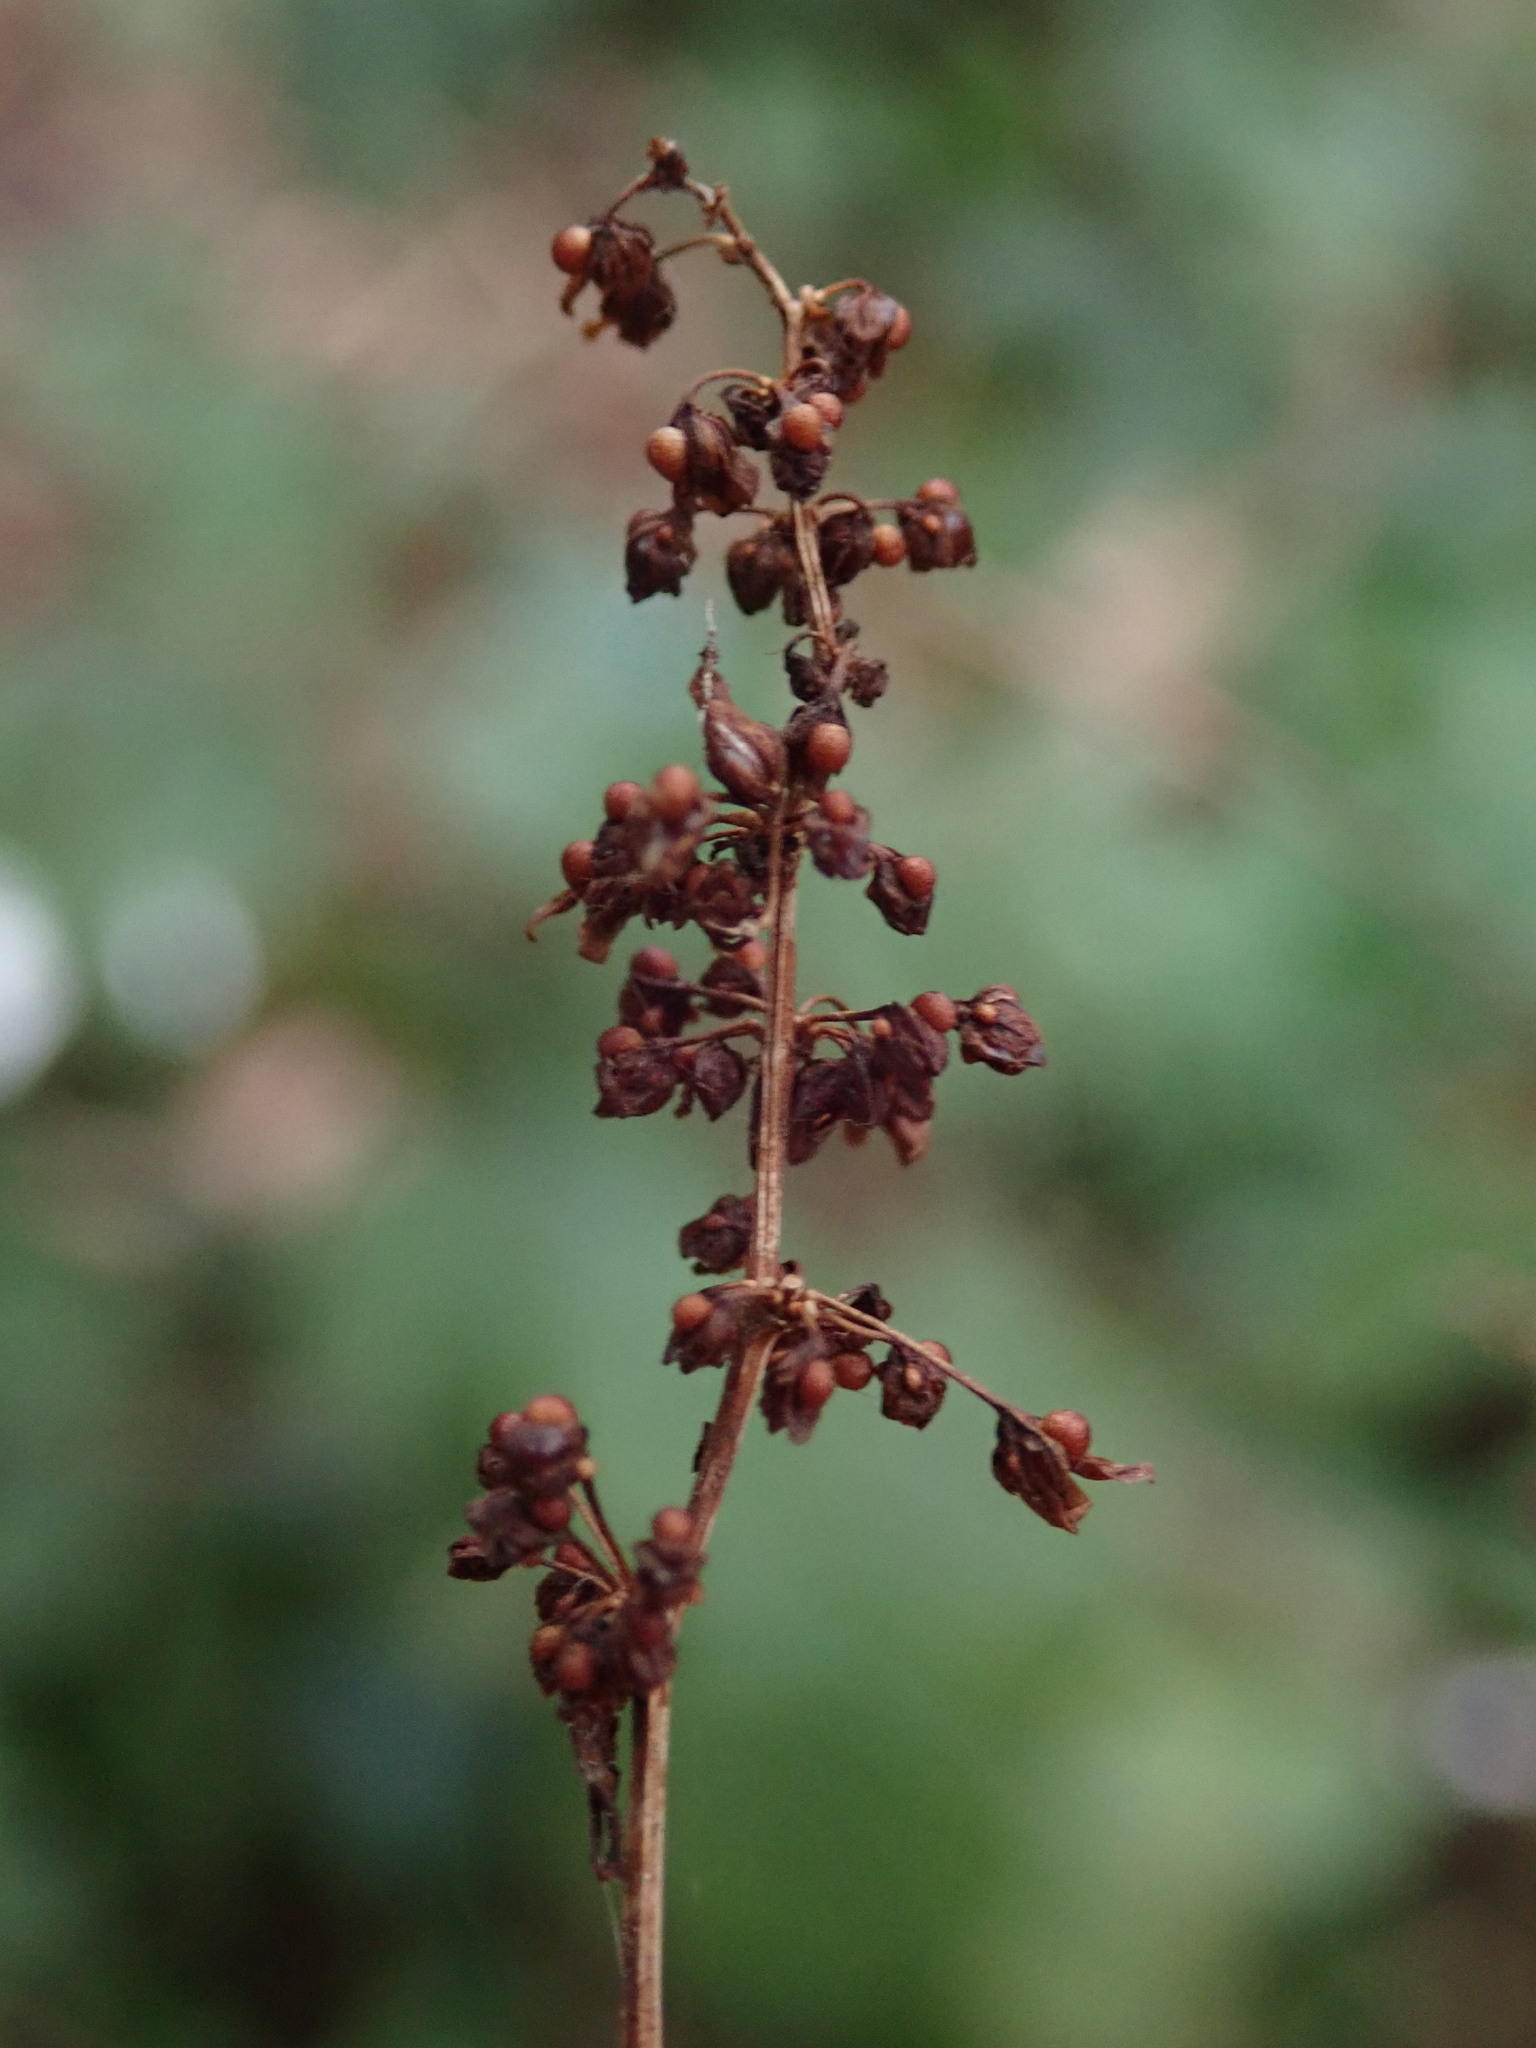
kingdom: Plantae
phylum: Tracheophyta
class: Magnoliopsida
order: Caryophyllales
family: Polygonaceae
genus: Rumex
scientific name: Rumex sanguineus
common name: Wood dock
